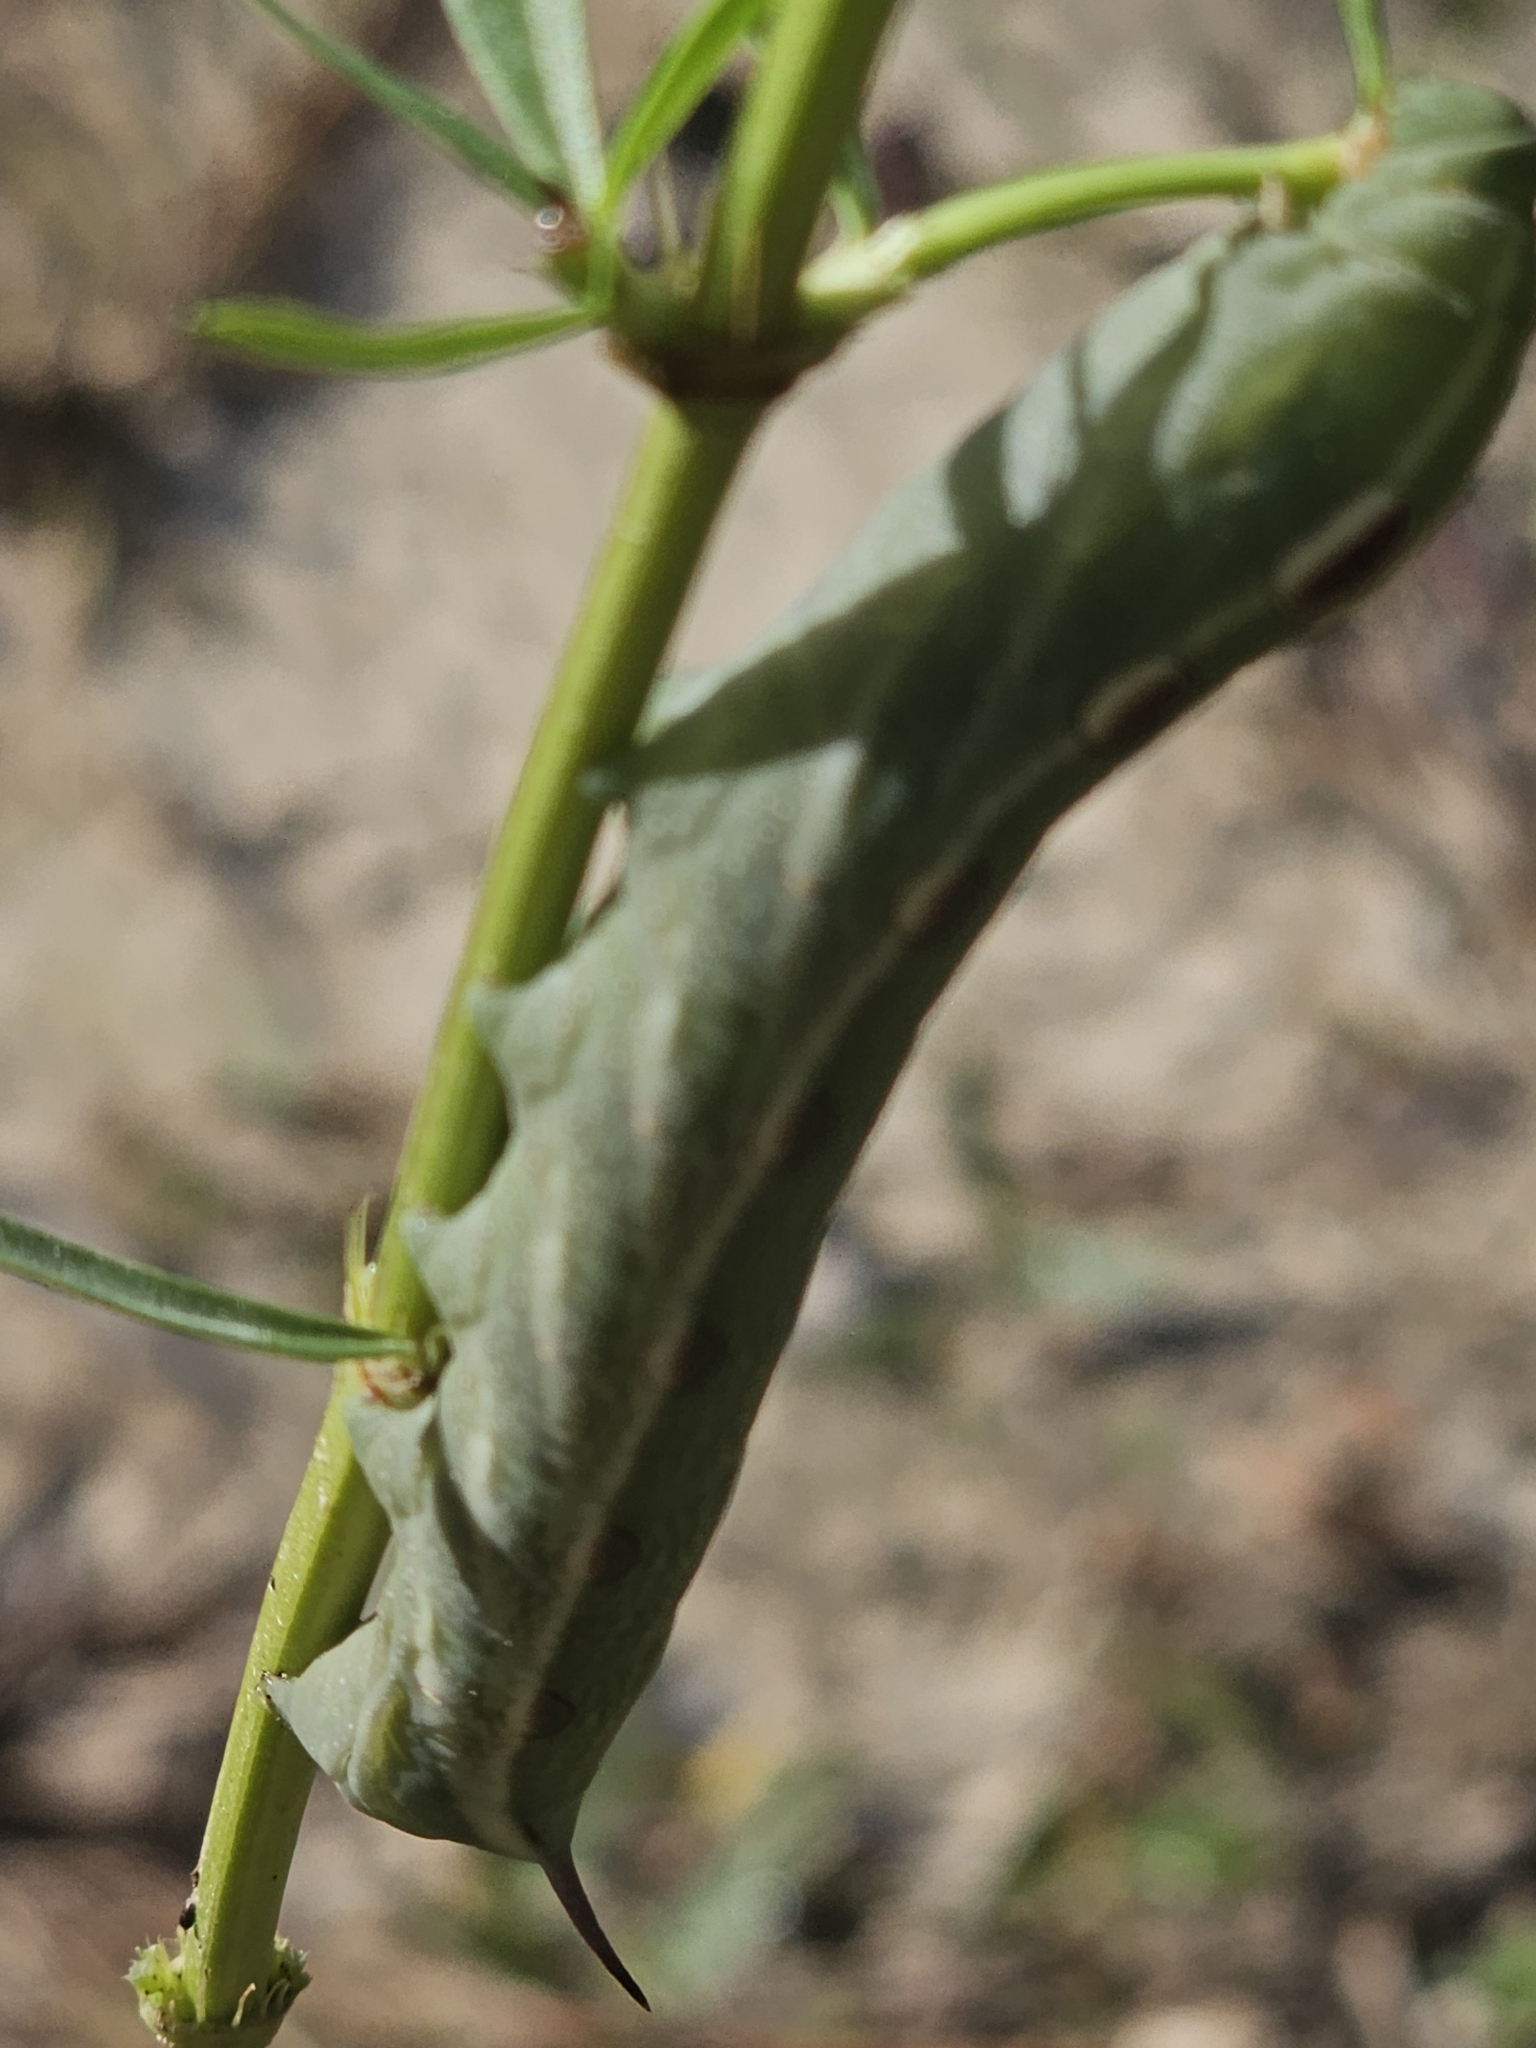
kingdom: Animalia
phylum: Arthropoda
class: Insecta
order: Lepidoptera
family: Sphingidae
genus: Xylophanes
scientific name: Xylophanes tersa
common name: Tersa sphinx
